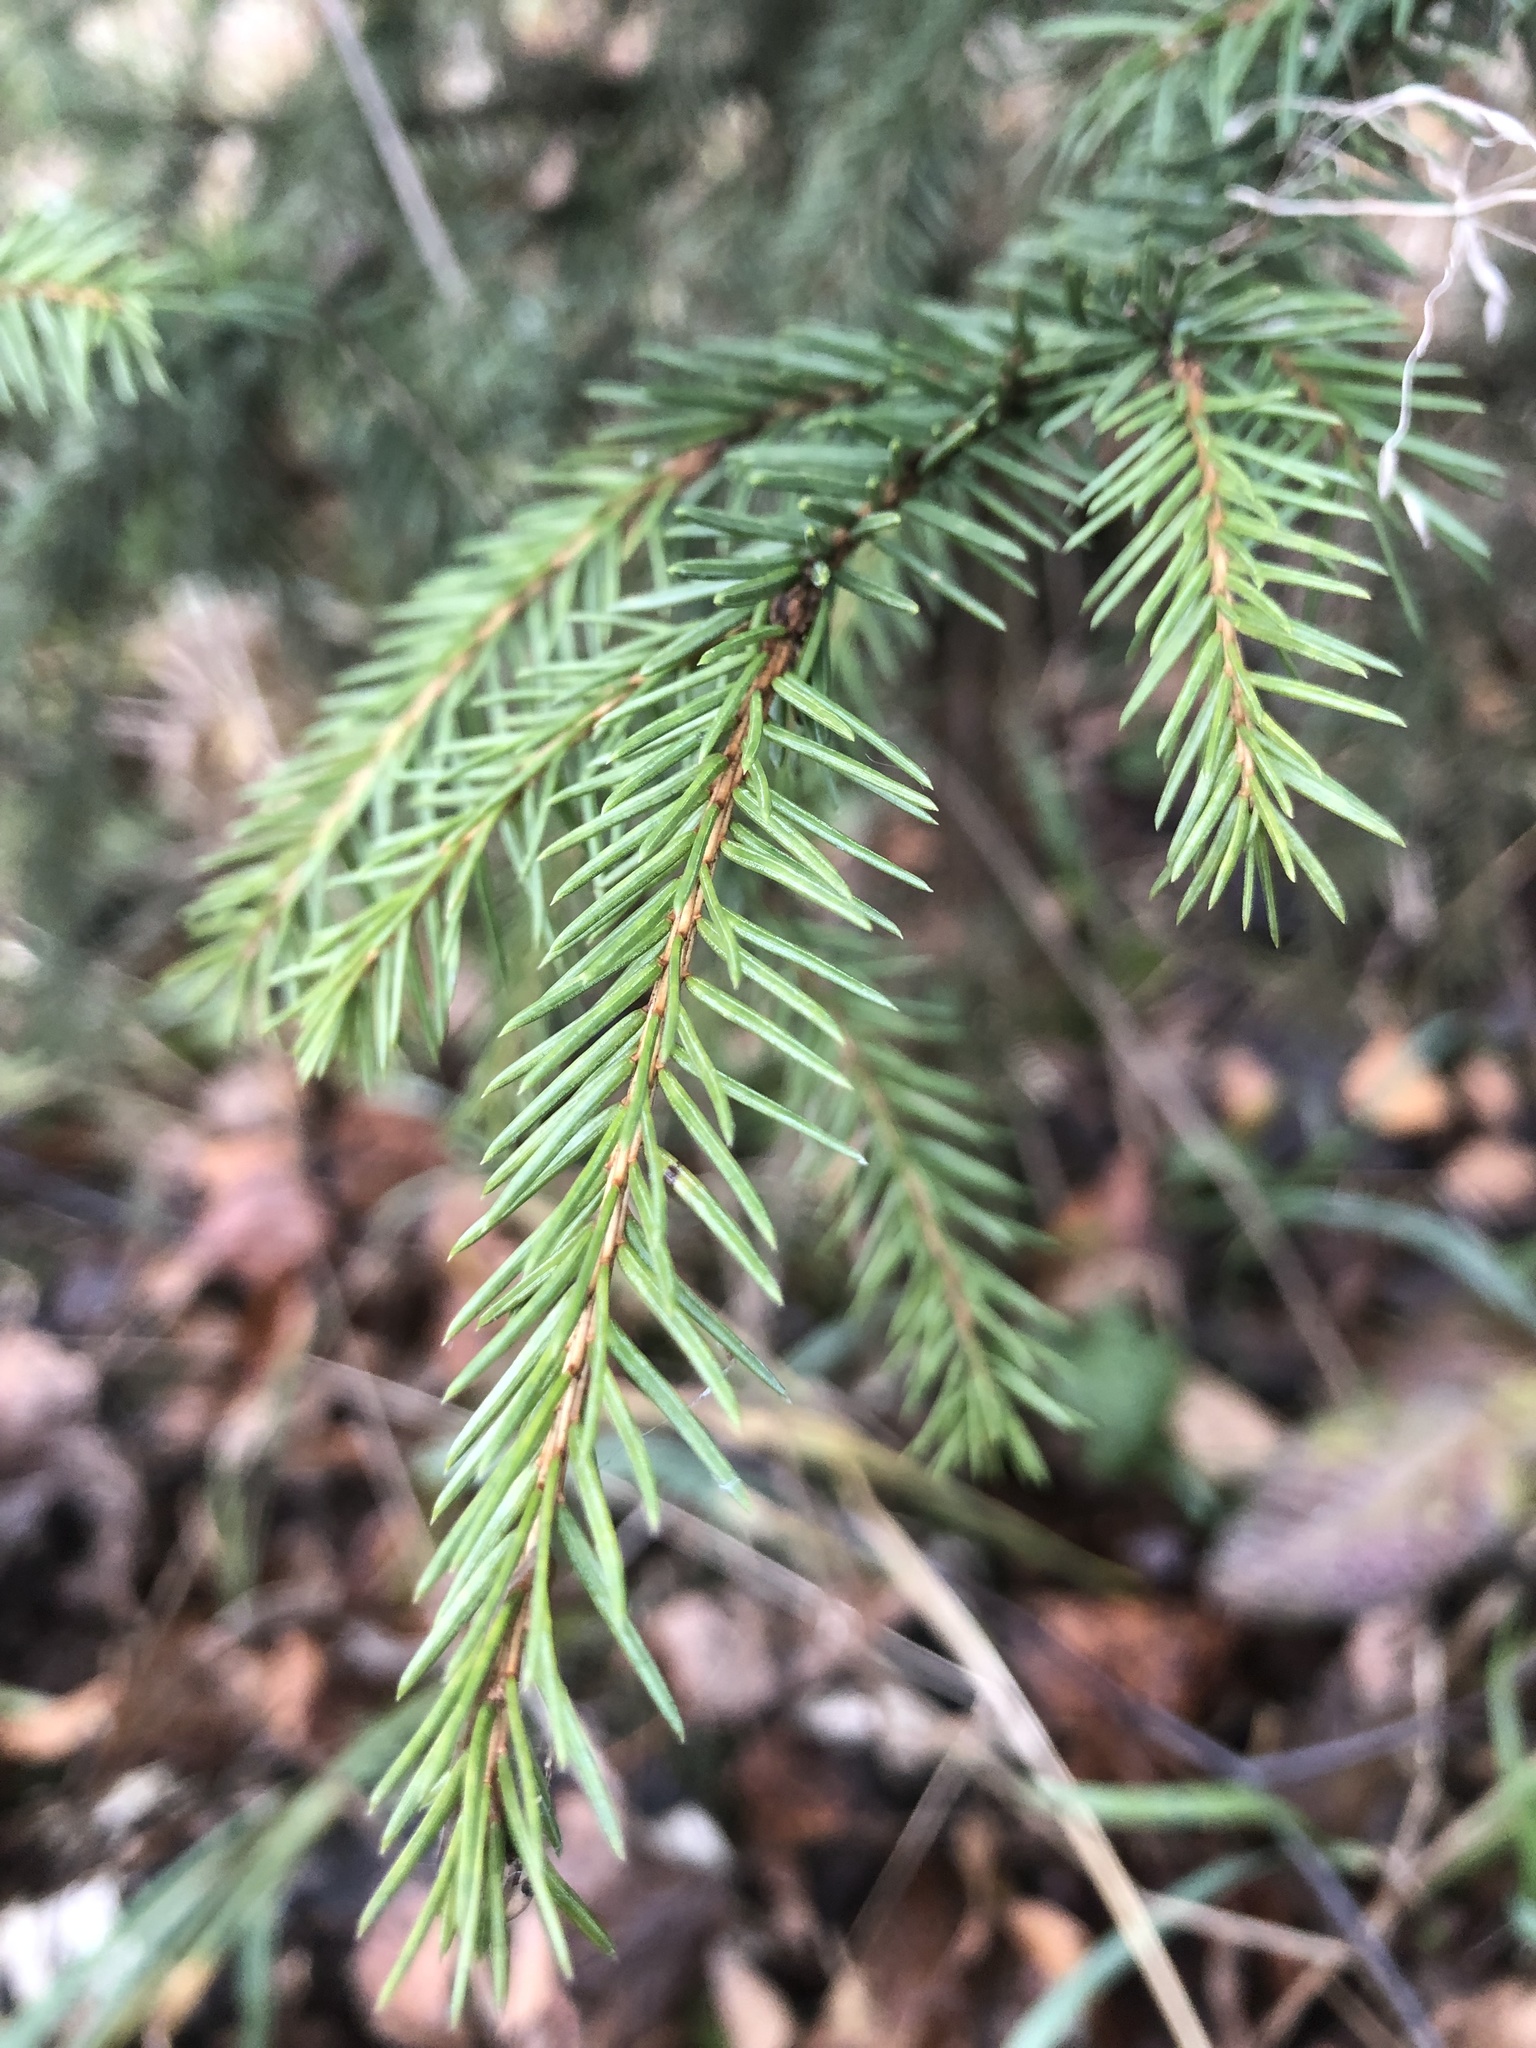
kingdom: Plantae
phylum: Tracheophyta
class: Pinopsida
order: Pinales
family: Pinaceae
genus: Picea
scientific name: Picea abies
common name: Norway spruce
